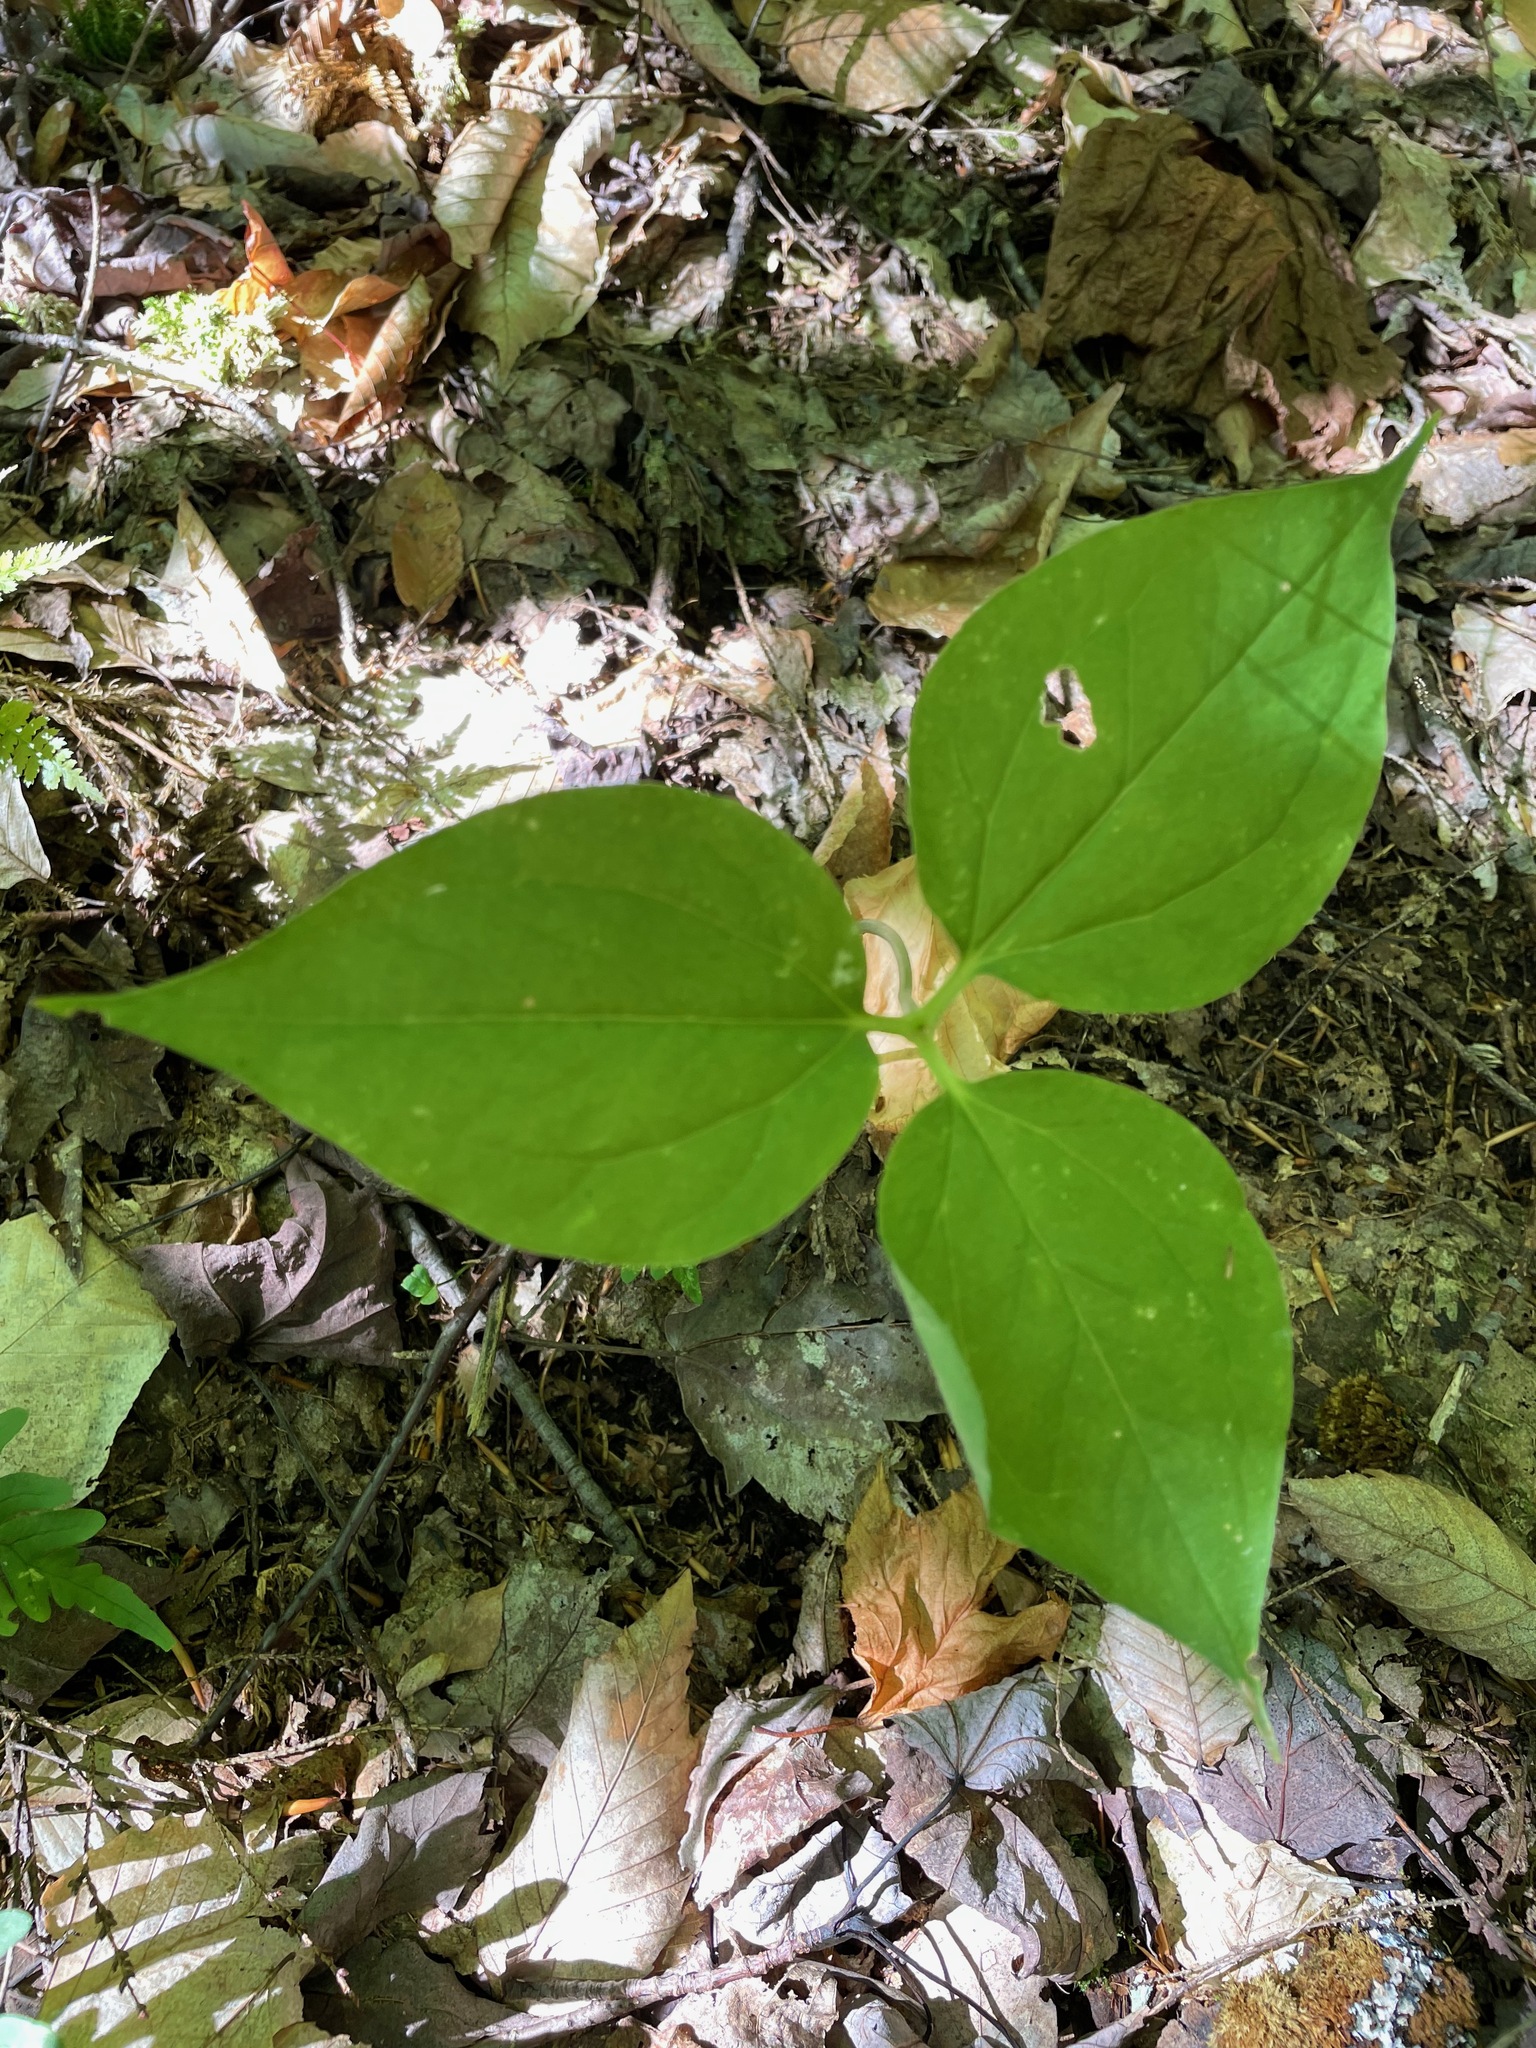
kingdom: Plantae
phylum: Tracheophyta
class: Liliopsida
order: Liliales
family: Melanthiaceae
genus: Trillium
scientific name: Trillium undulatum
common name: Paint trillium
